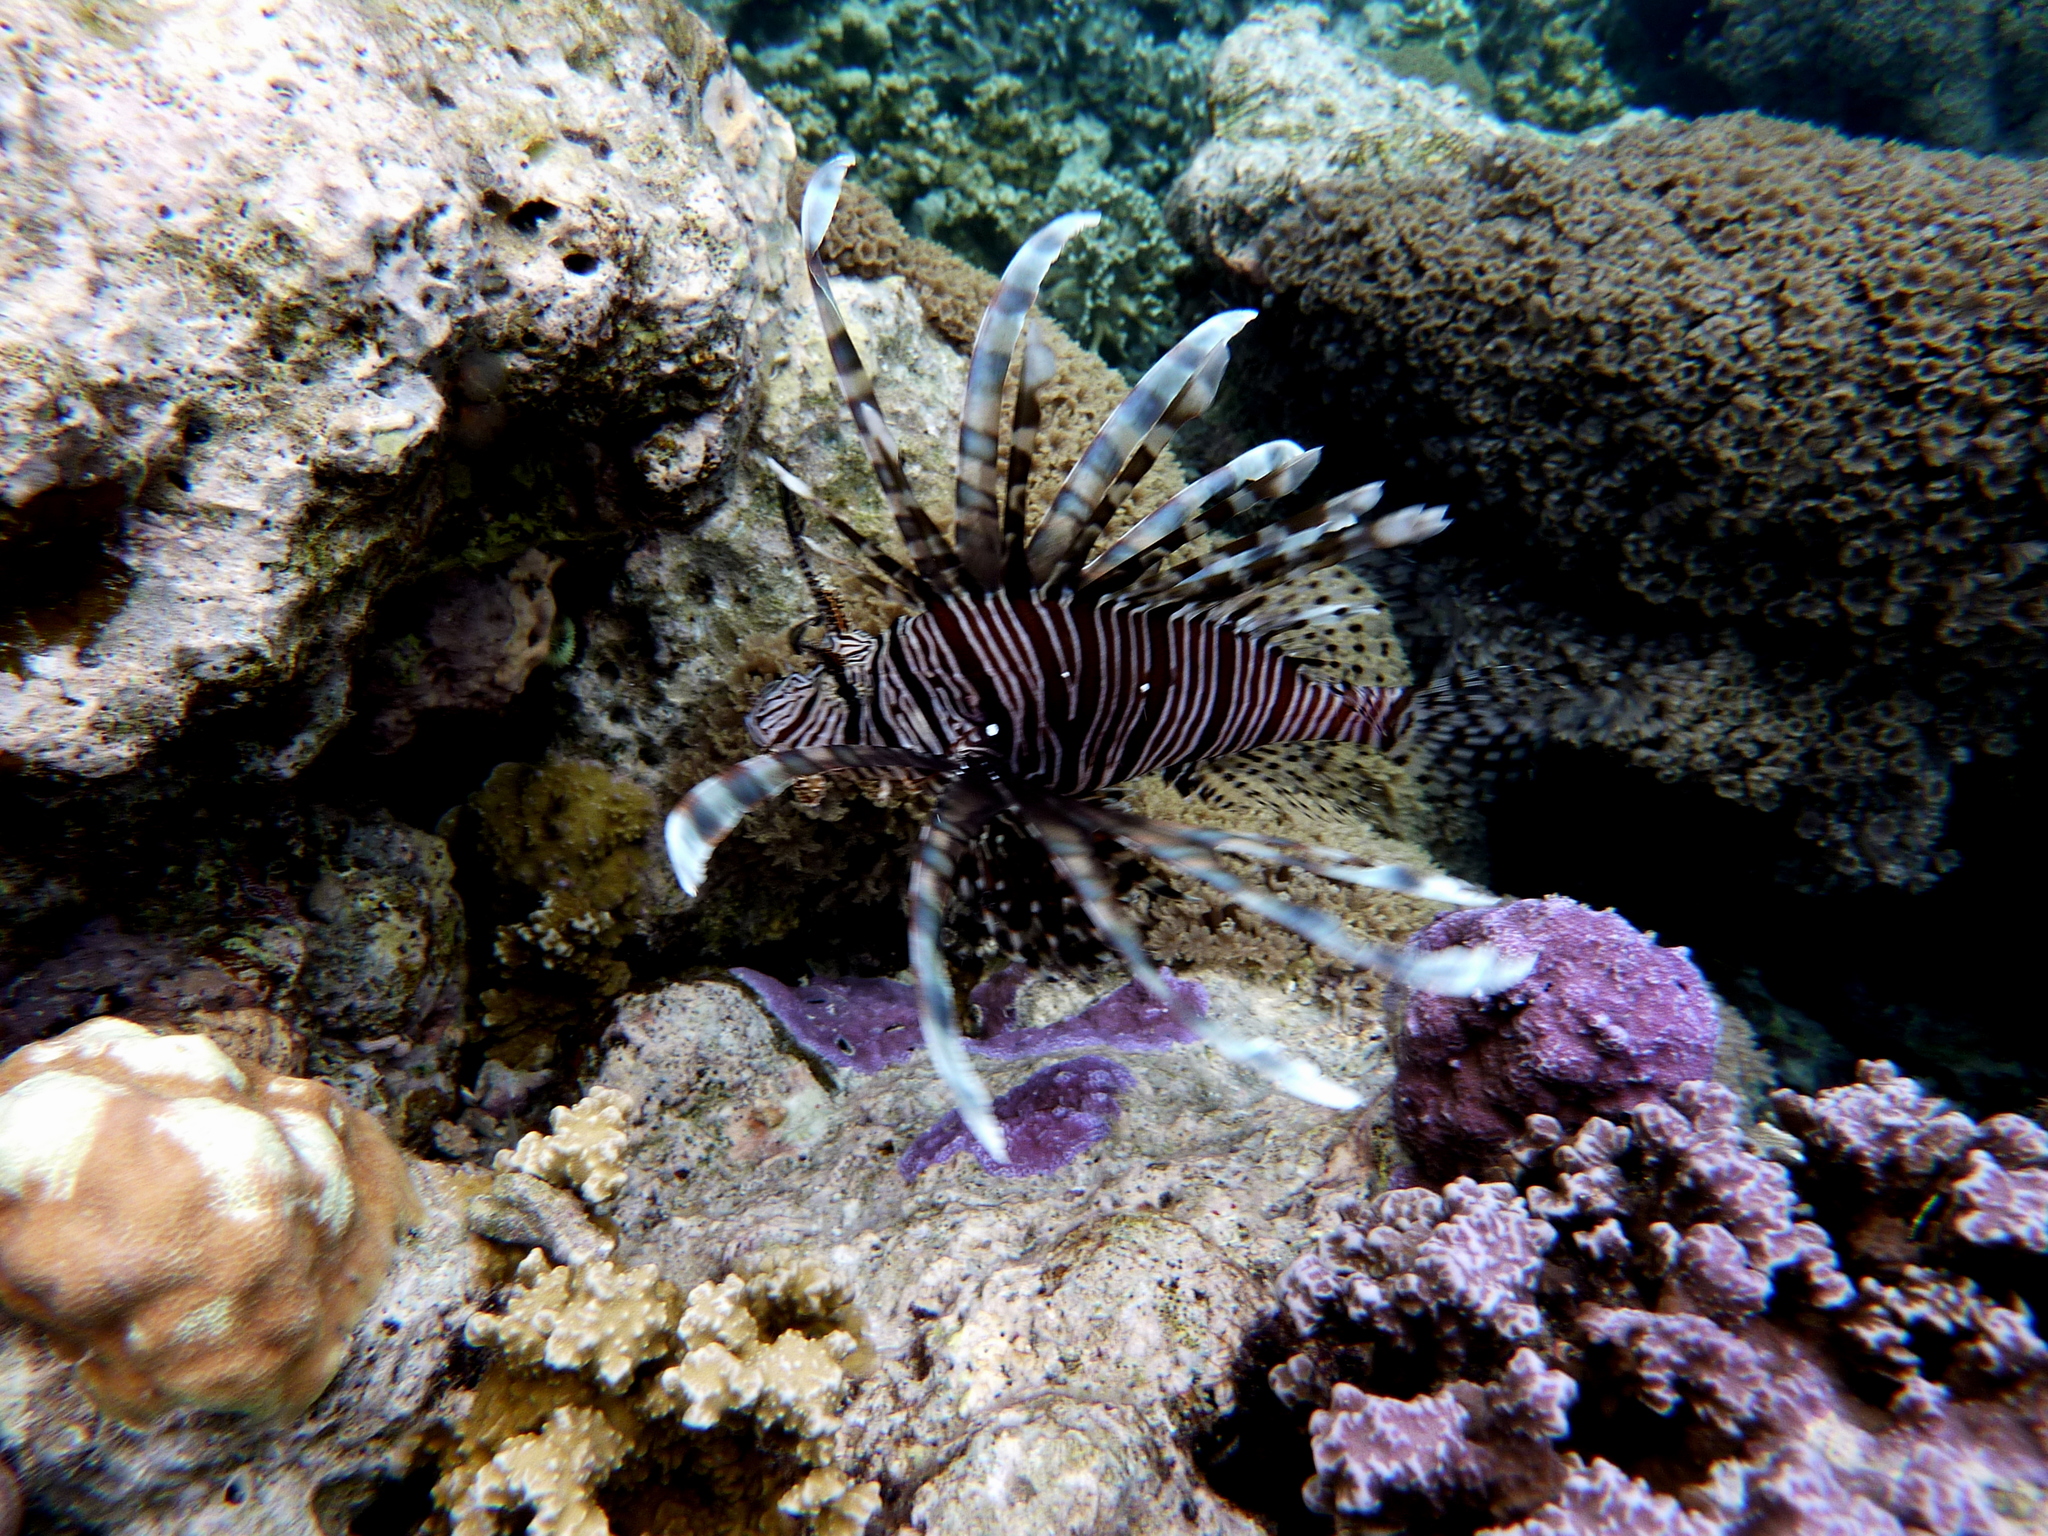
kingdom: Animalia
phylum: Chordata
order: Scorpaeniformes
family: Scorpaenidae
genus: Pterois
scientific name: Pterois volitans
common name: Lionfish
